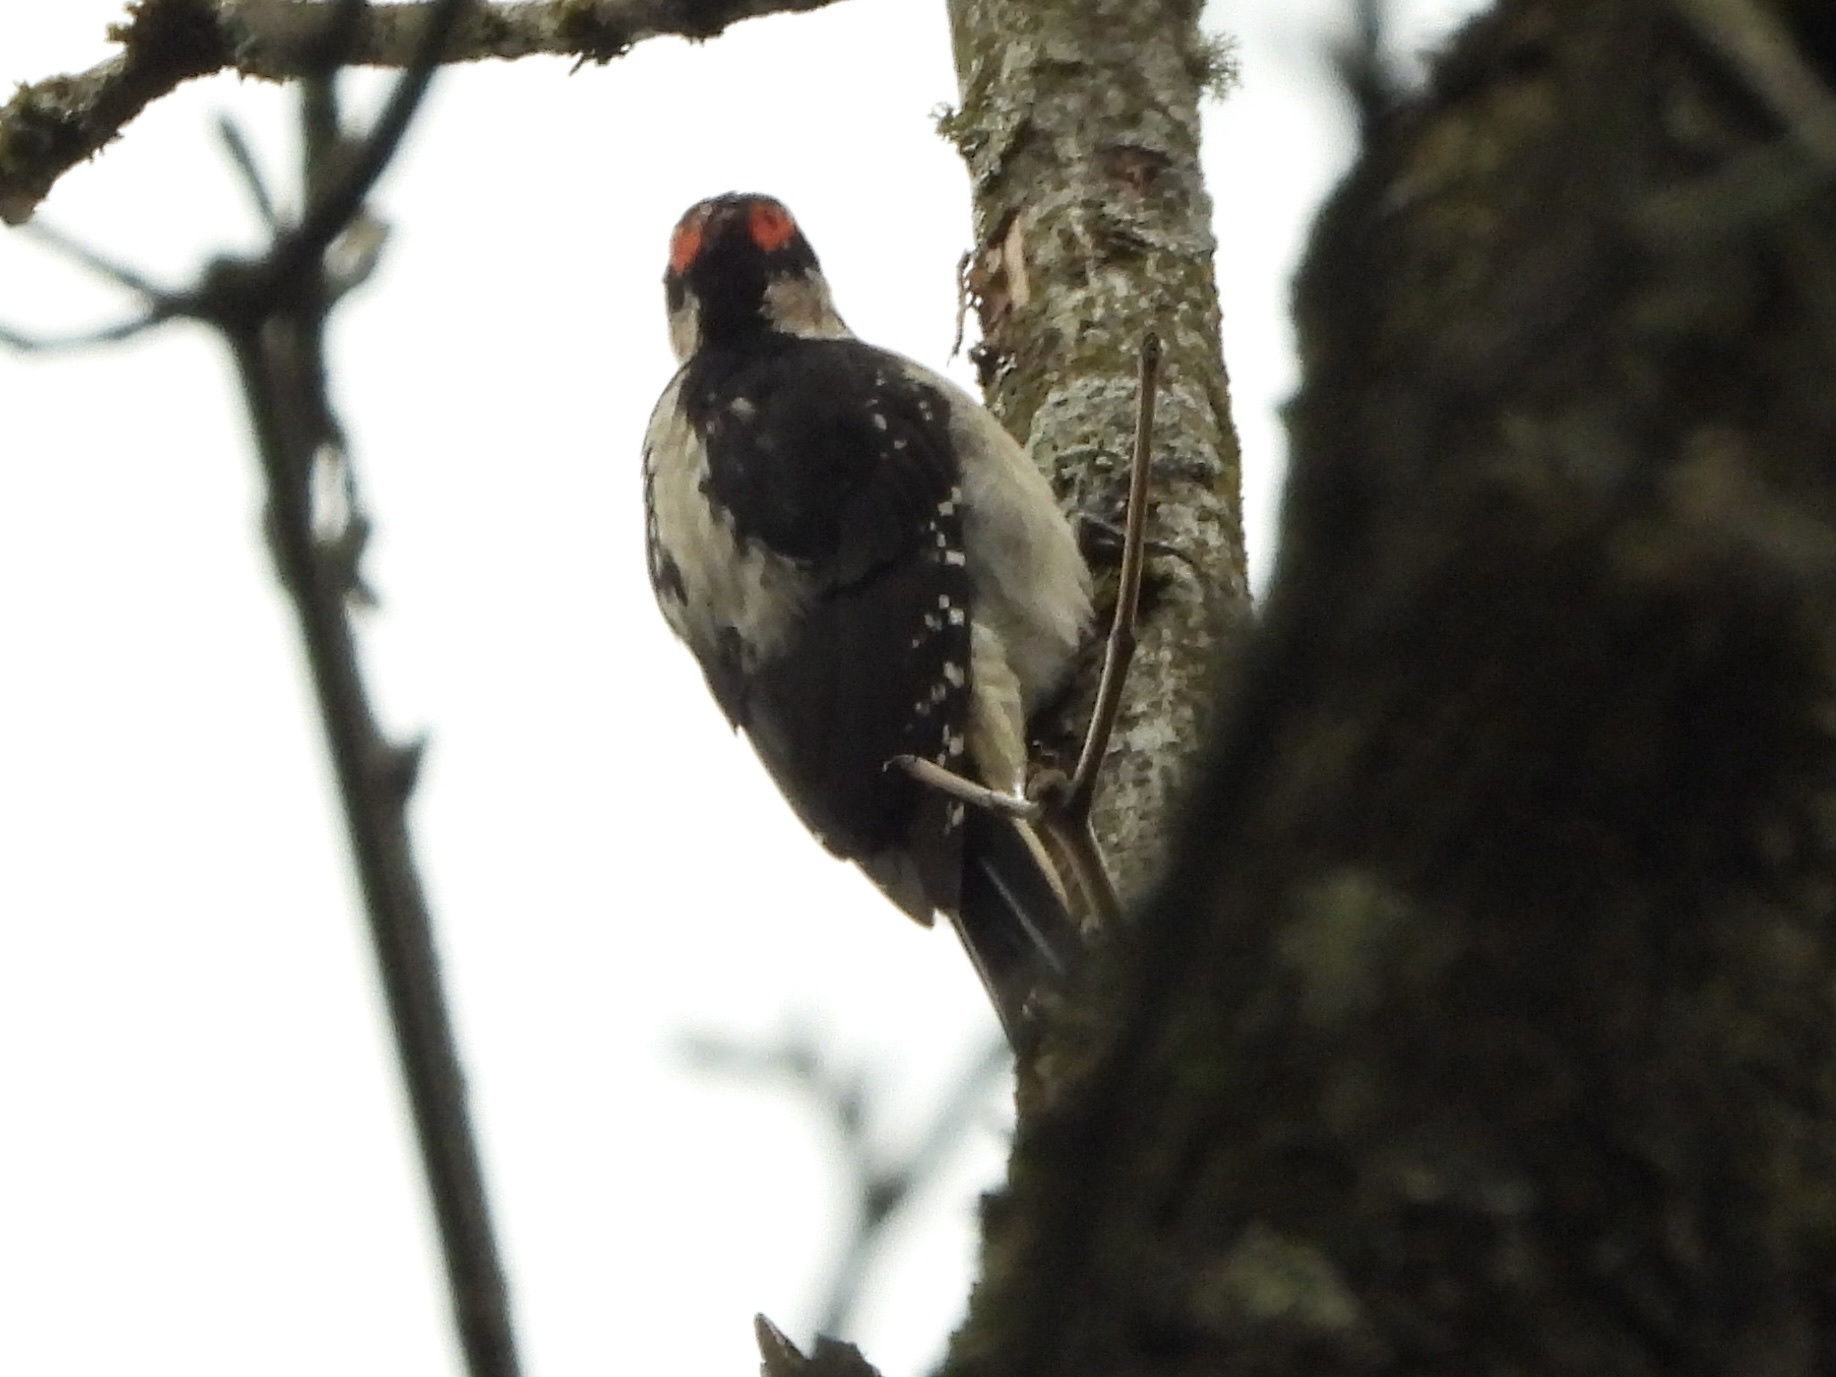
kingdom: Animalia
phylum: Chordata
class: Aves
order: Piciformes
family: Picidae
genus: Leuconotopicus
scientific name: Leuconotopicus villosus
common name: Hairy woodpecker
